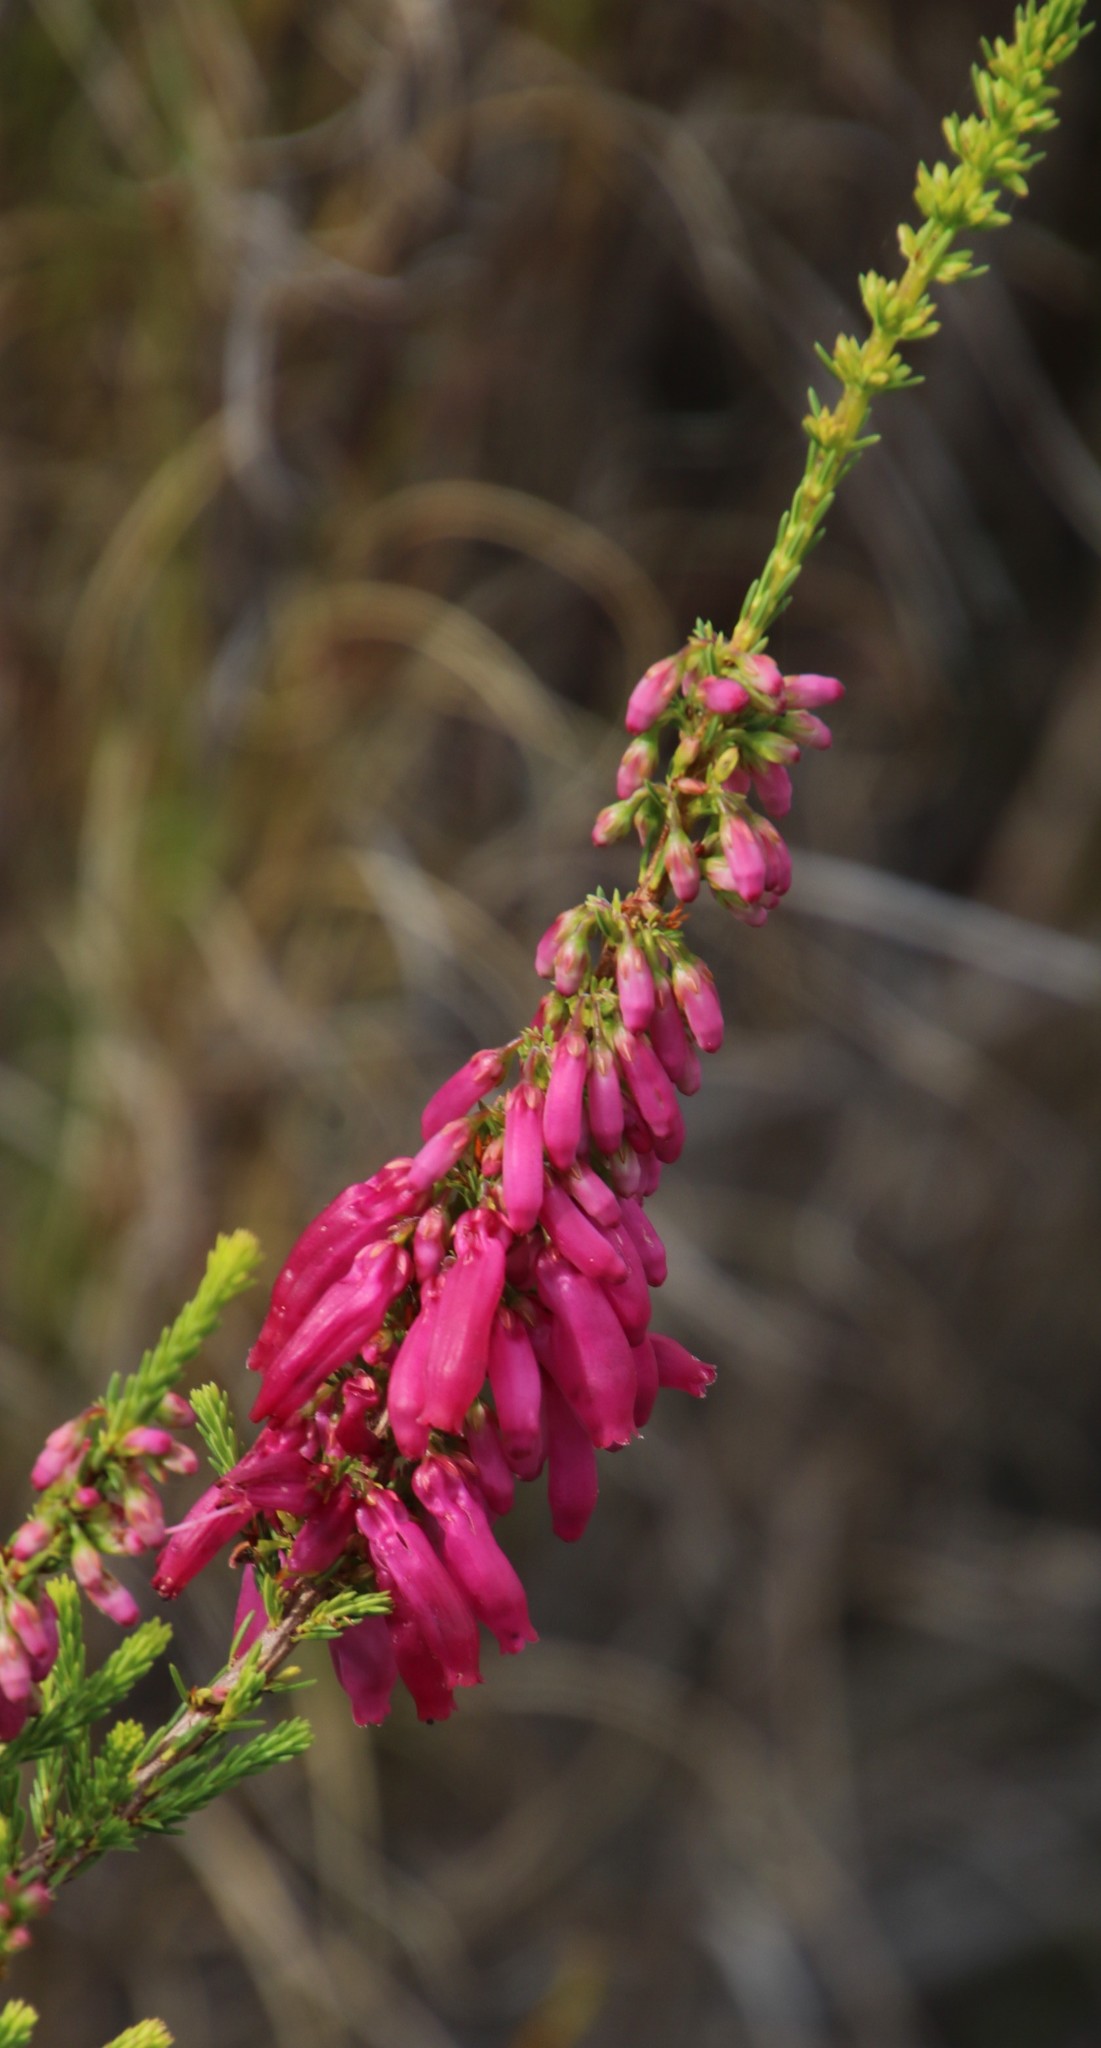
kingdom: Plantae
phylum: Tracheophyta
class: Magnoliopsida
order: Ericales
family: Ericaceae
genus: Erica
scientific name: Erica mammosa
